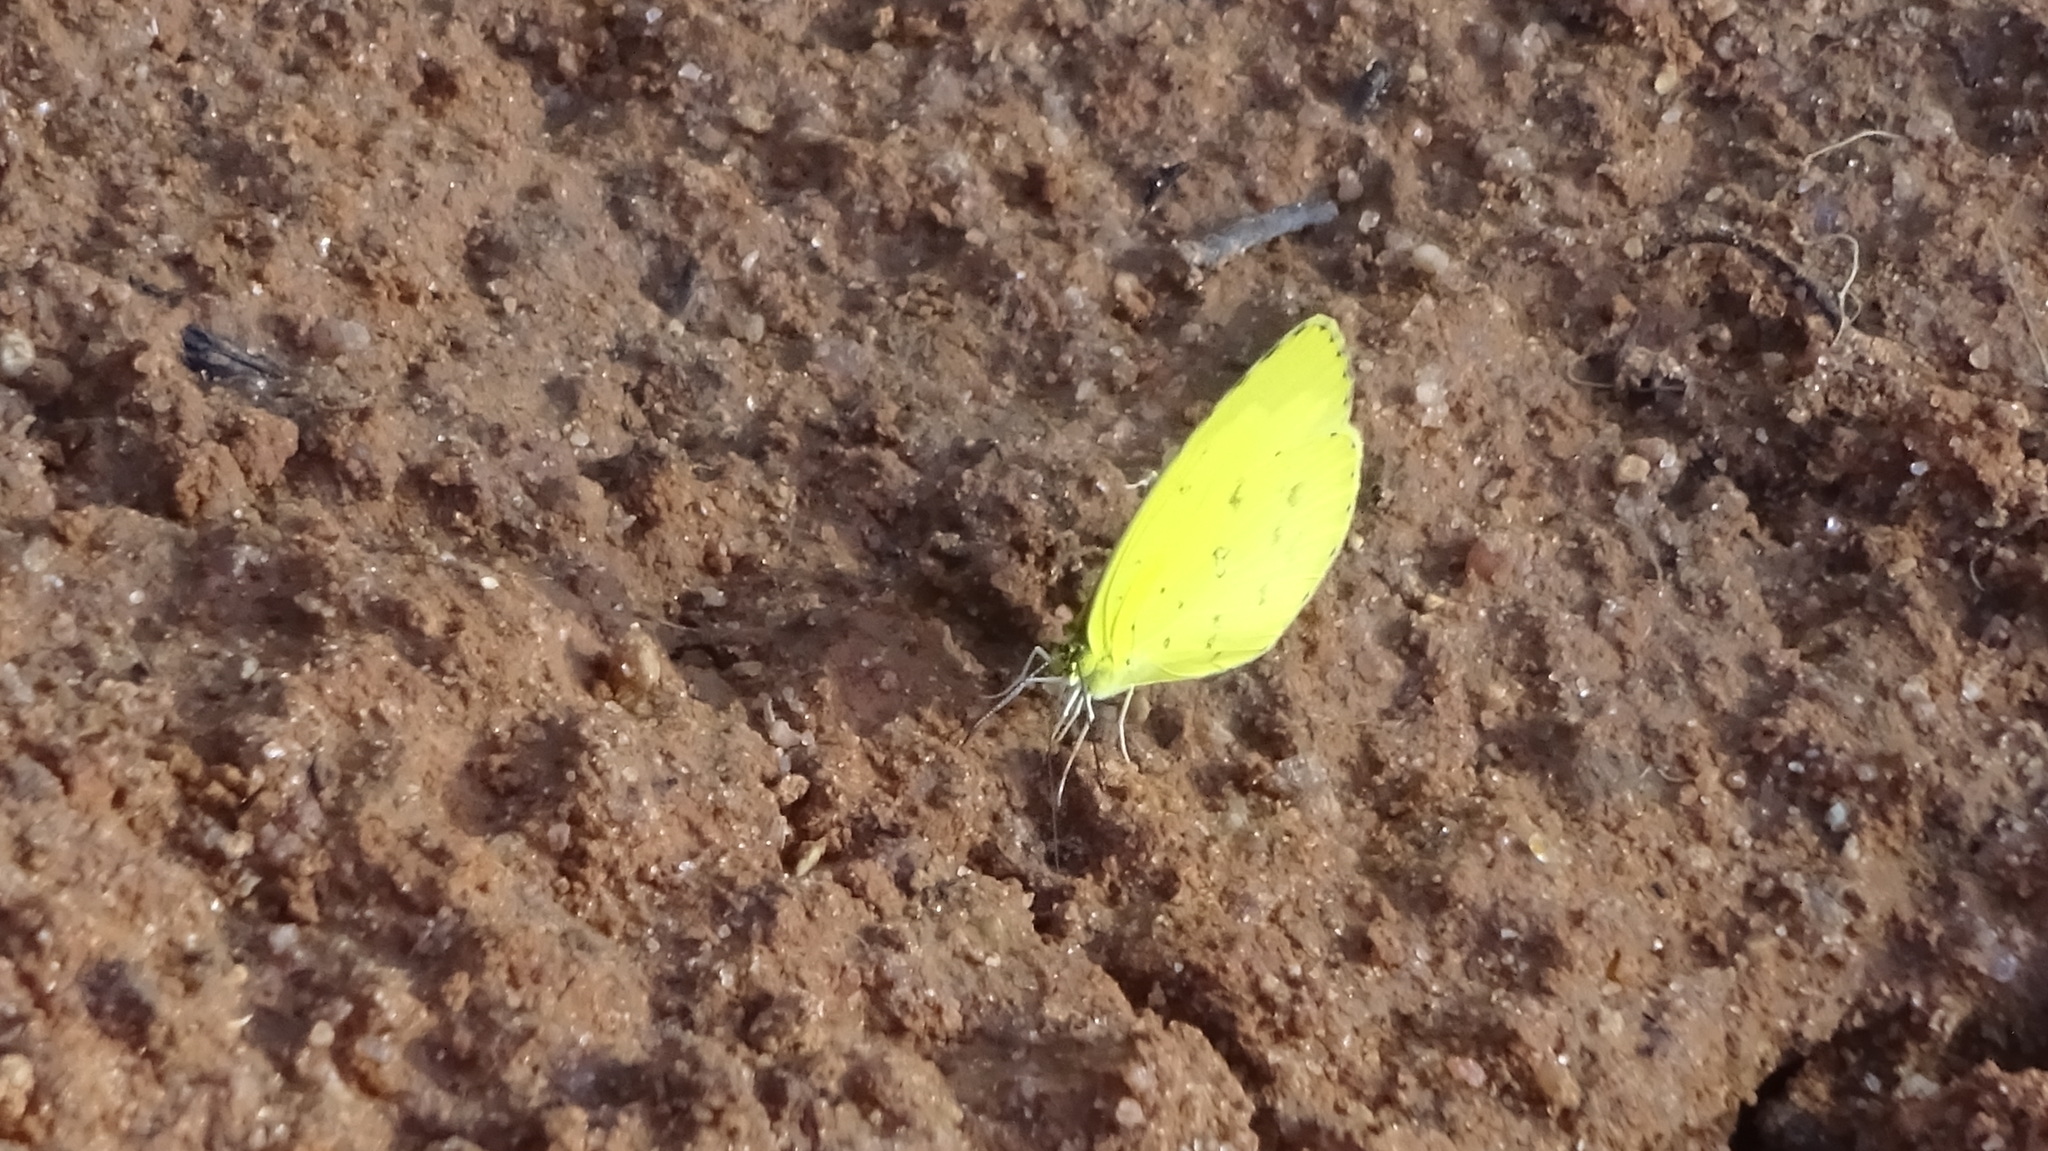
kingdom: Animalia
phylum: Arthropoda
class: Insecta
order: Lepidoptera
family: Pieridae
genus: Eurema
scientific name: Eurema hecabe
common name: Pale grass yellow
